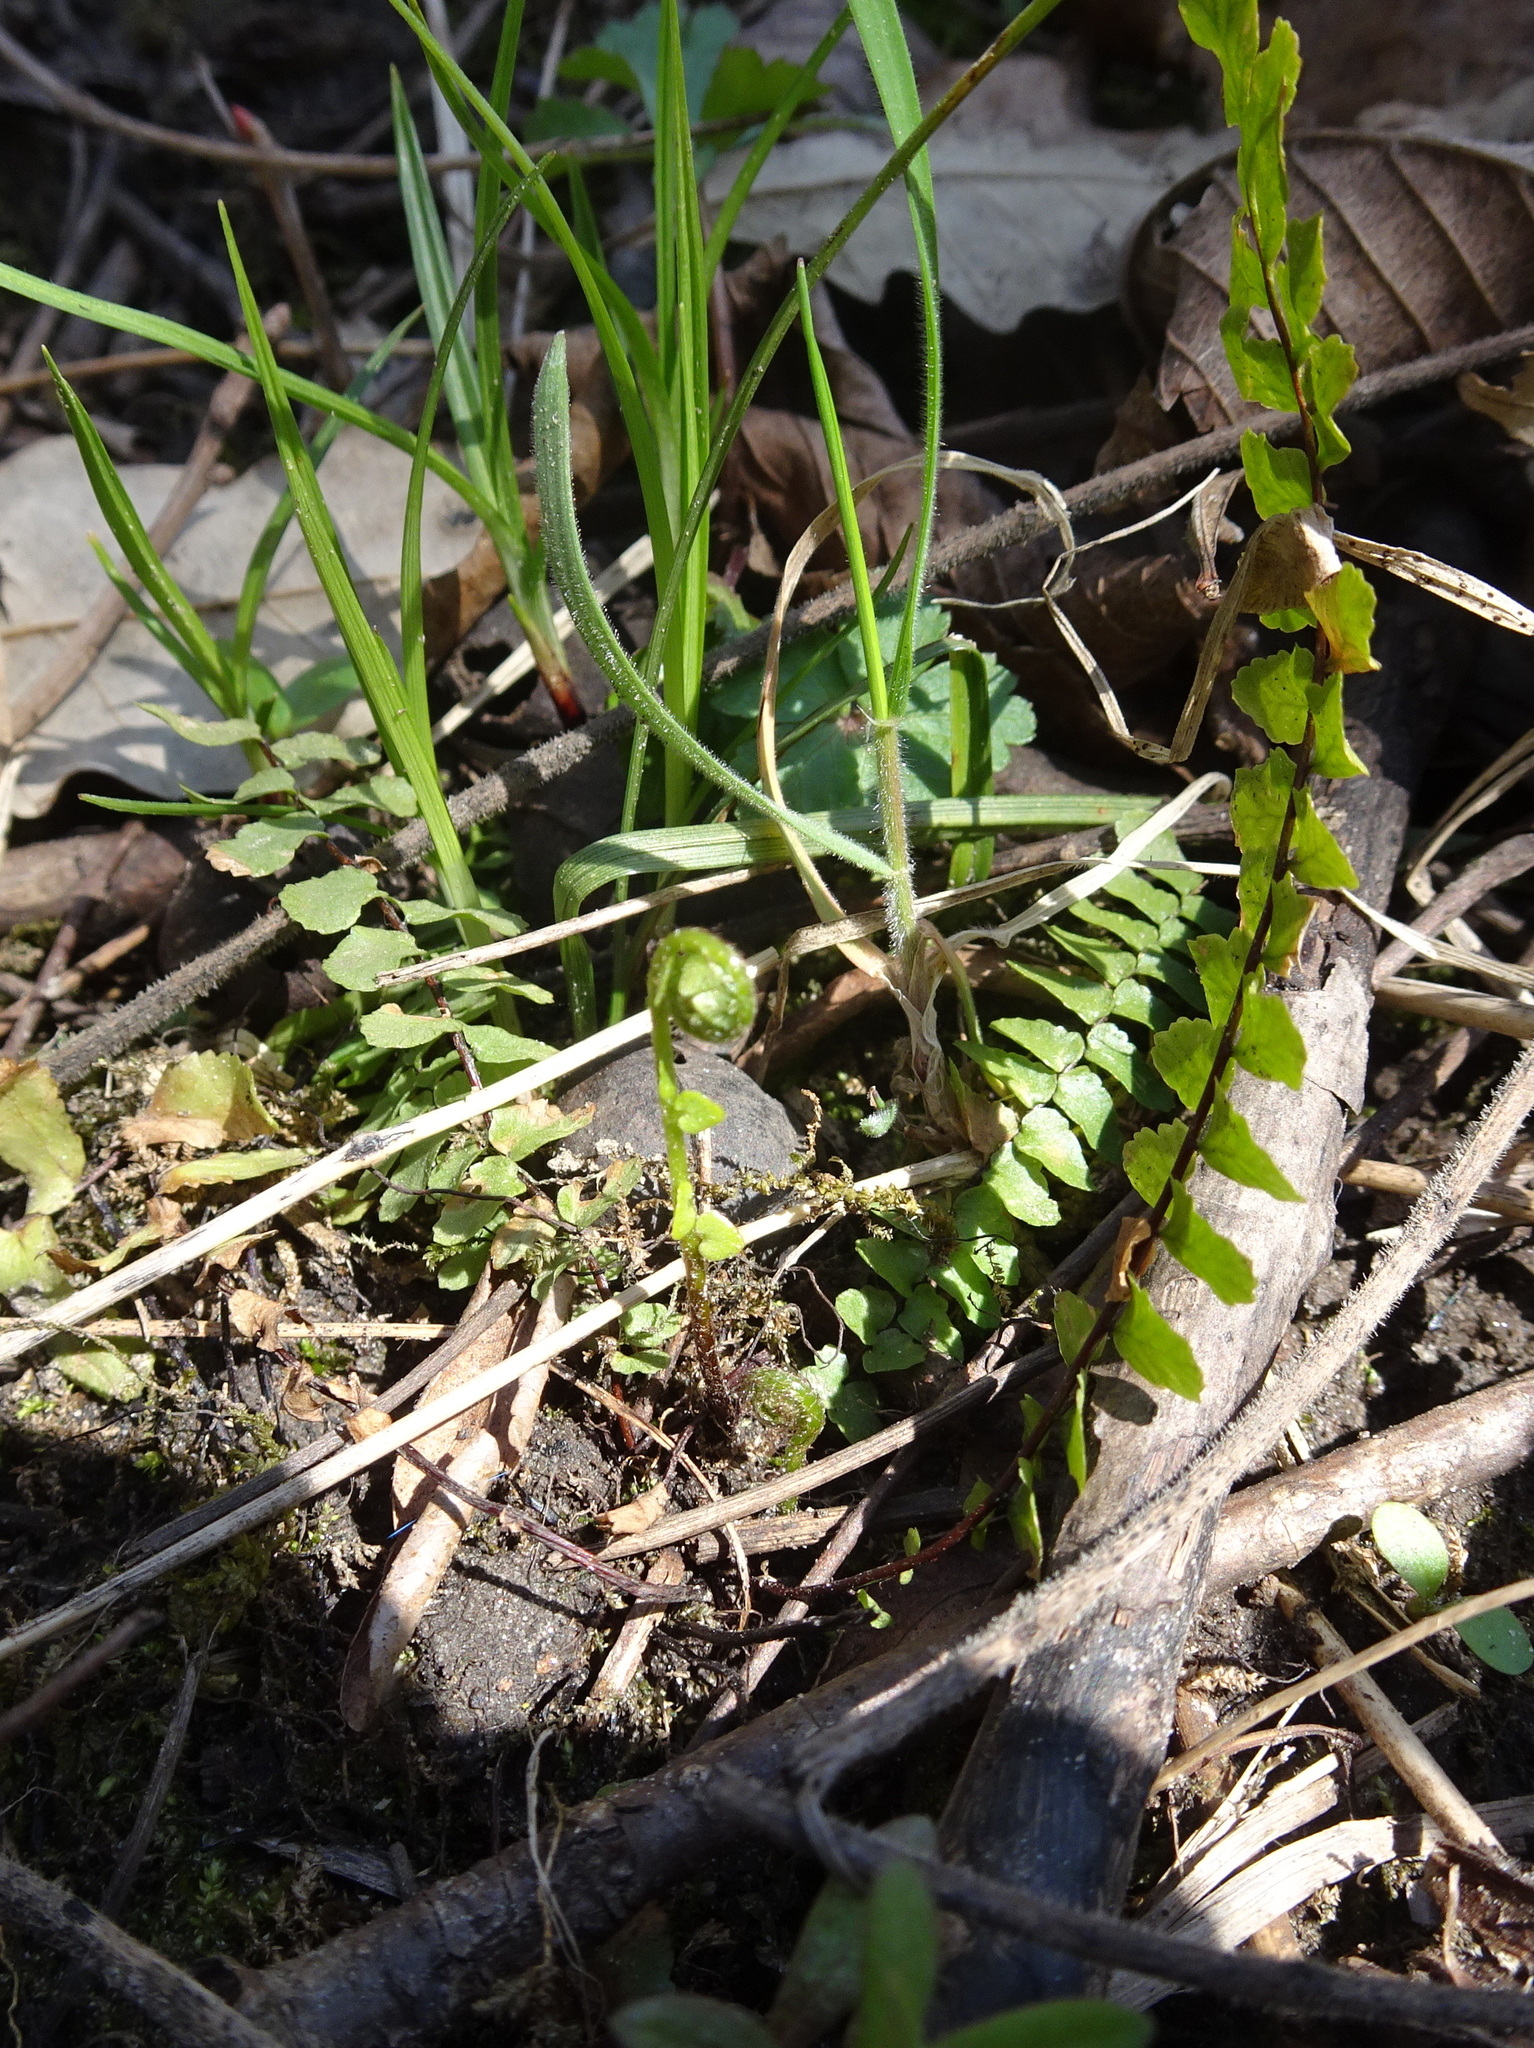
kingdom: Plantae
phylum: Tracheophyta
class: Polypodiopsida
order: Polypodiales
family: Aspleniaceae
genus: Asplenium
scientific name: Asplenium platyneuron
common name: Ebony spleenwort
